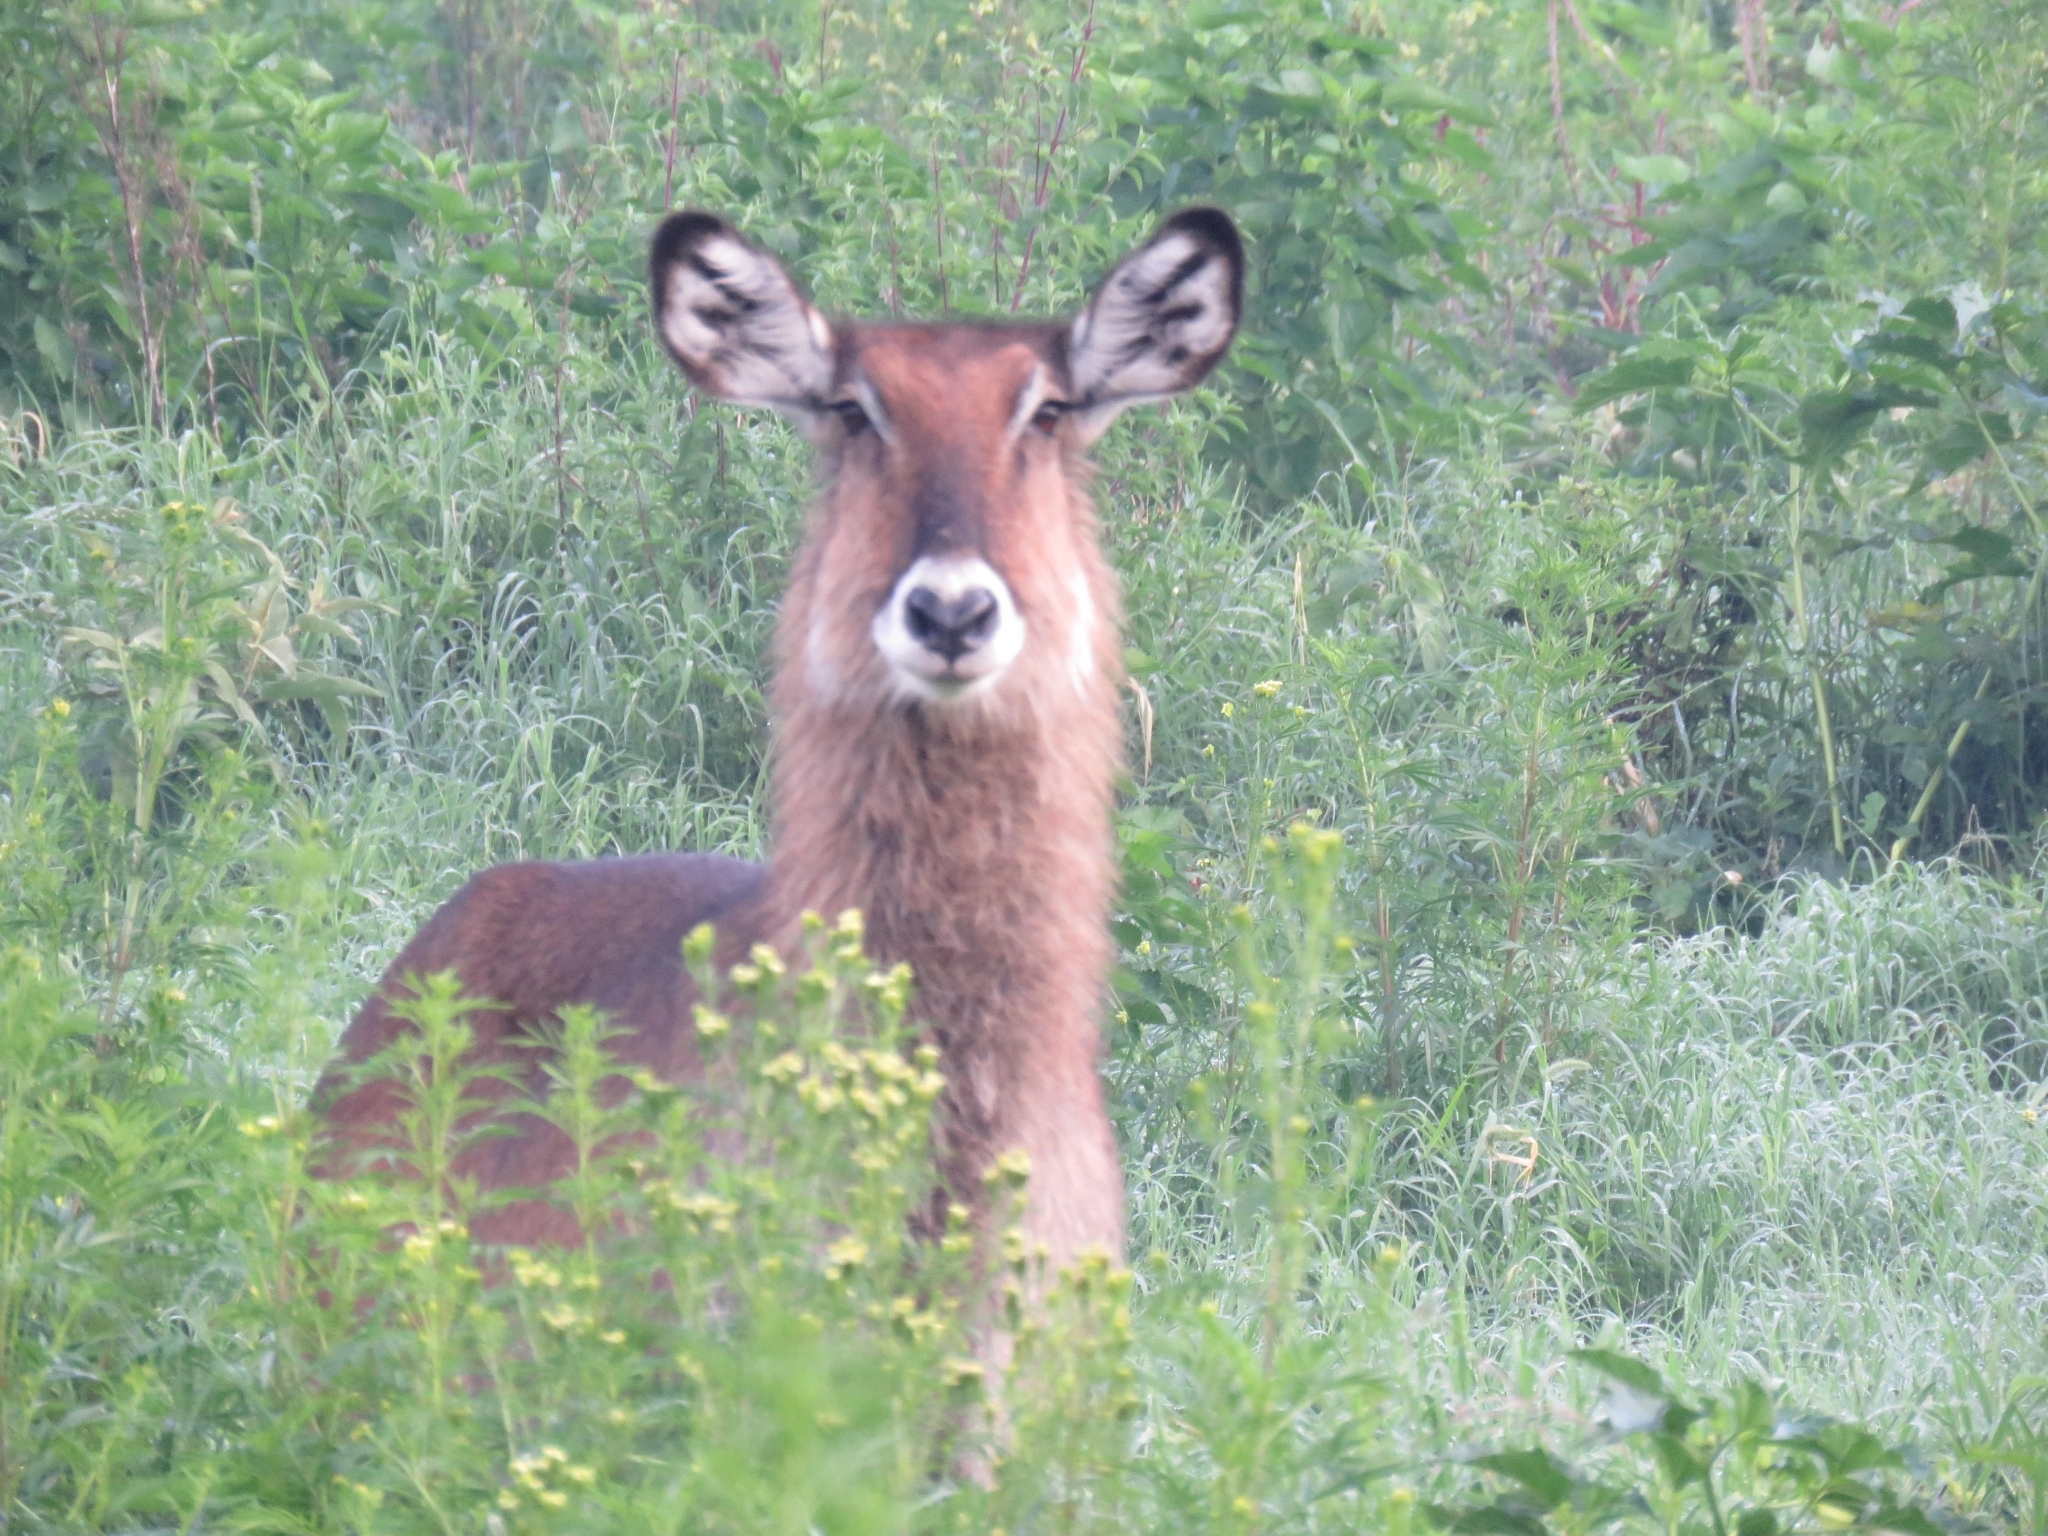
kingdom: Animalia
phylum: Chordata
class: Mammalia
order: Artiodactyla
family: Bovidae
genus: Kobus
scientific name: Kobus ellipsiprymnus
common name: Waterbuck
